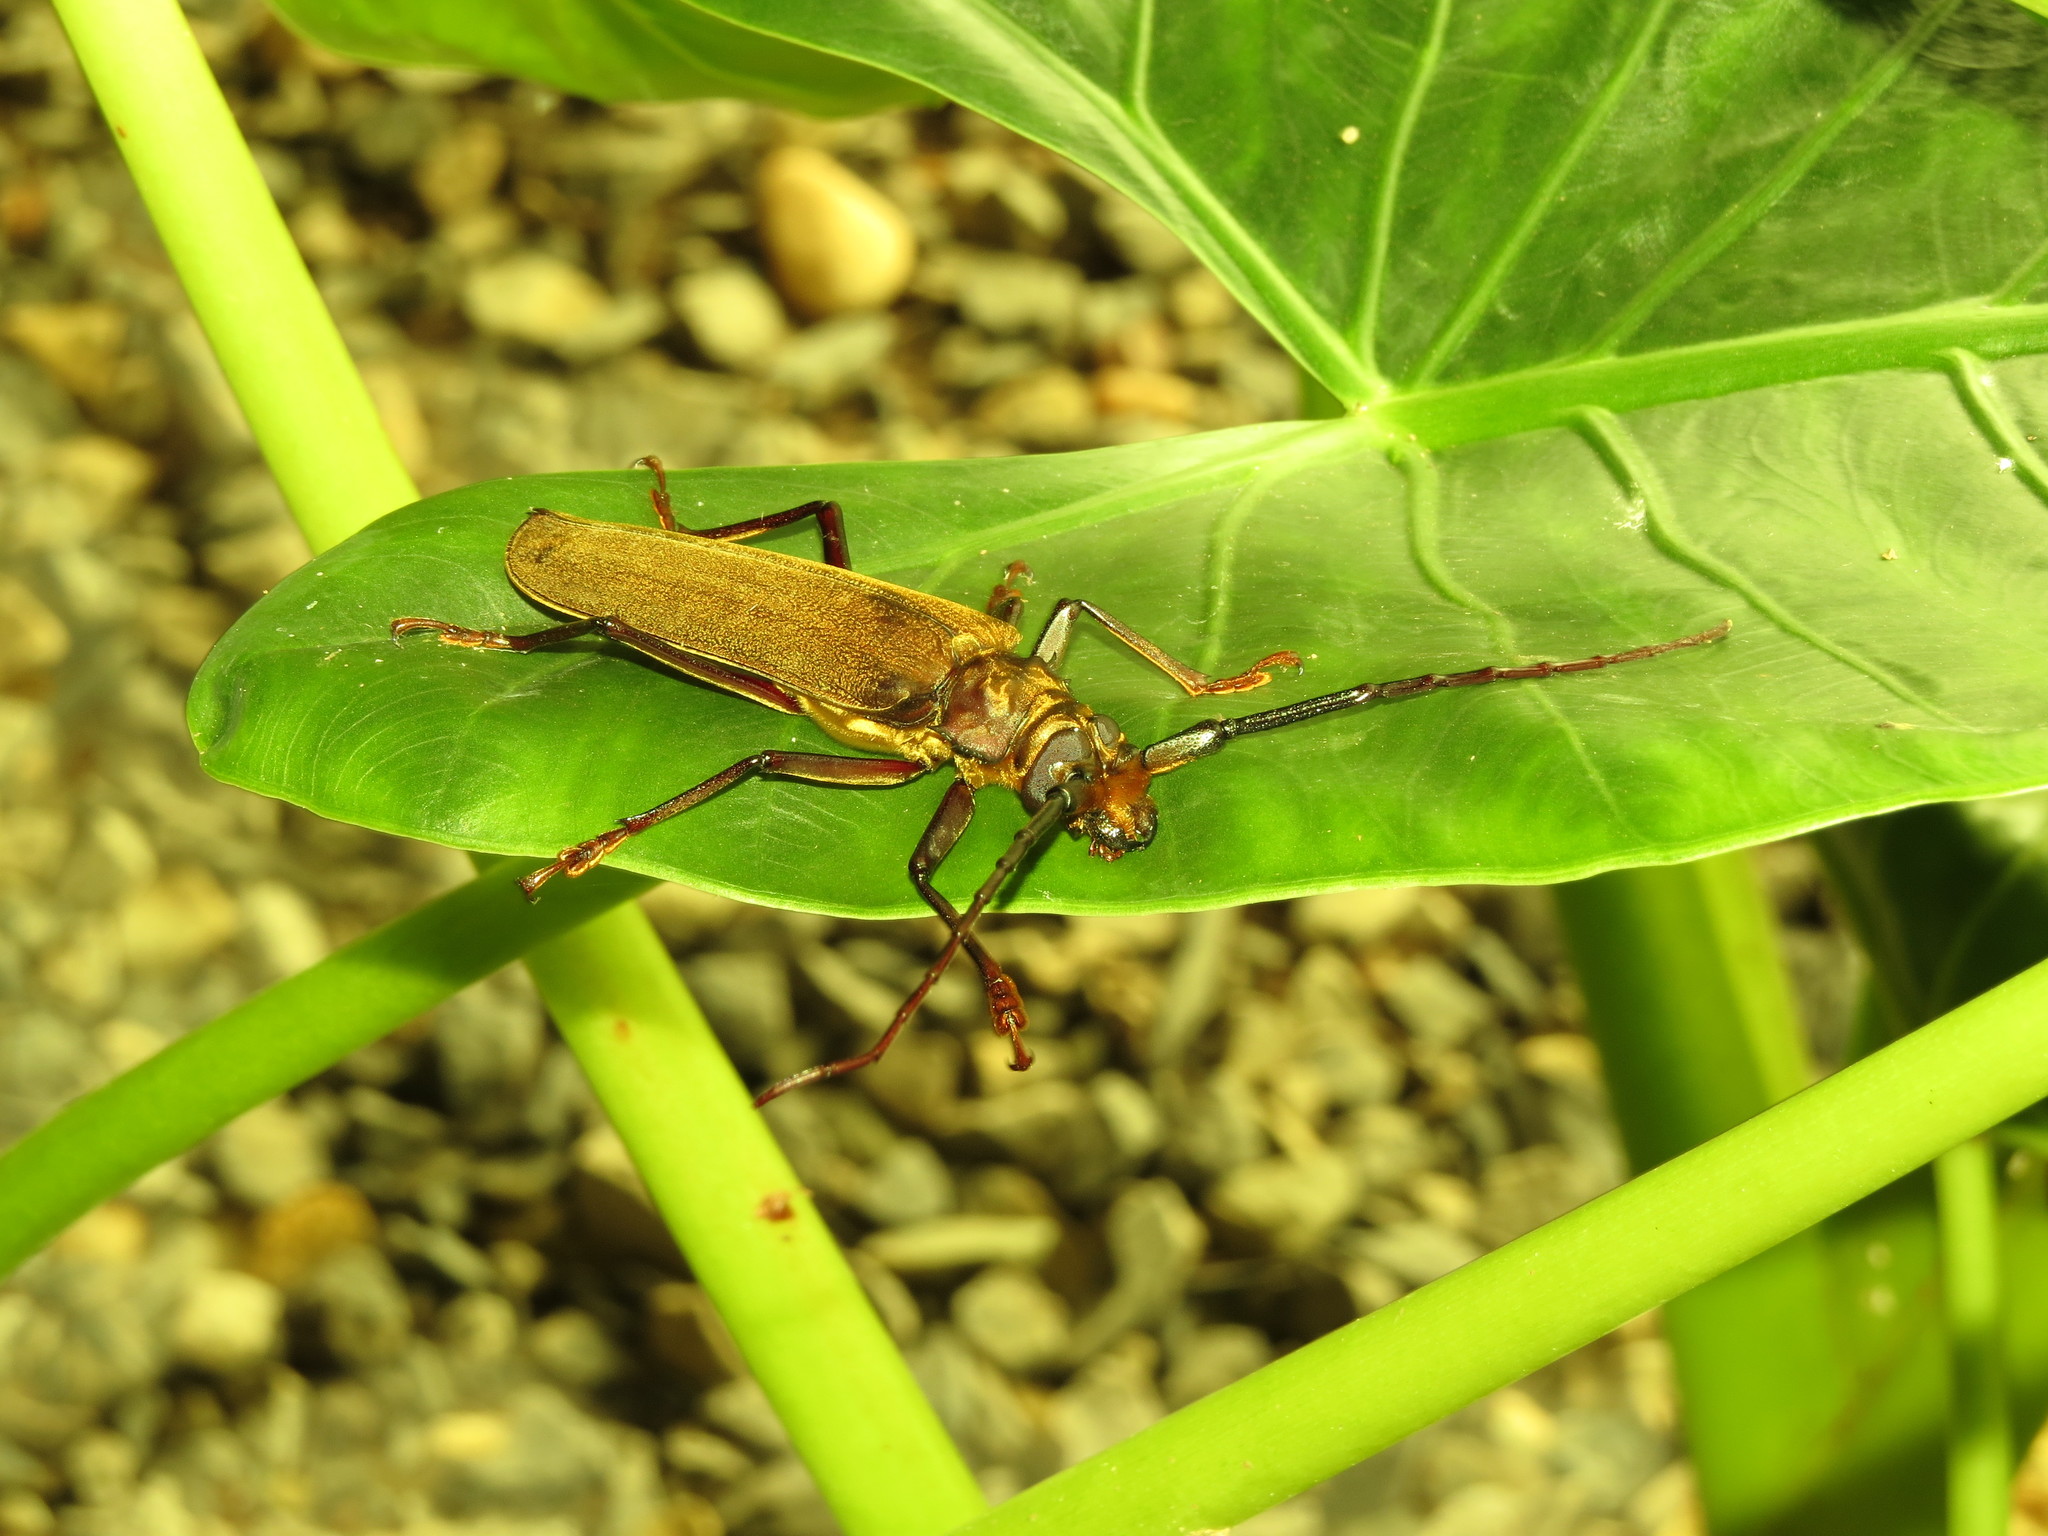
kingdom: Animalia
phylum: Arthropoda
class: Insecta
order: Coleoptera
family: Cerambycidae
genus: Orthomegas
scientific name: Orthomegas cinnamomeus
